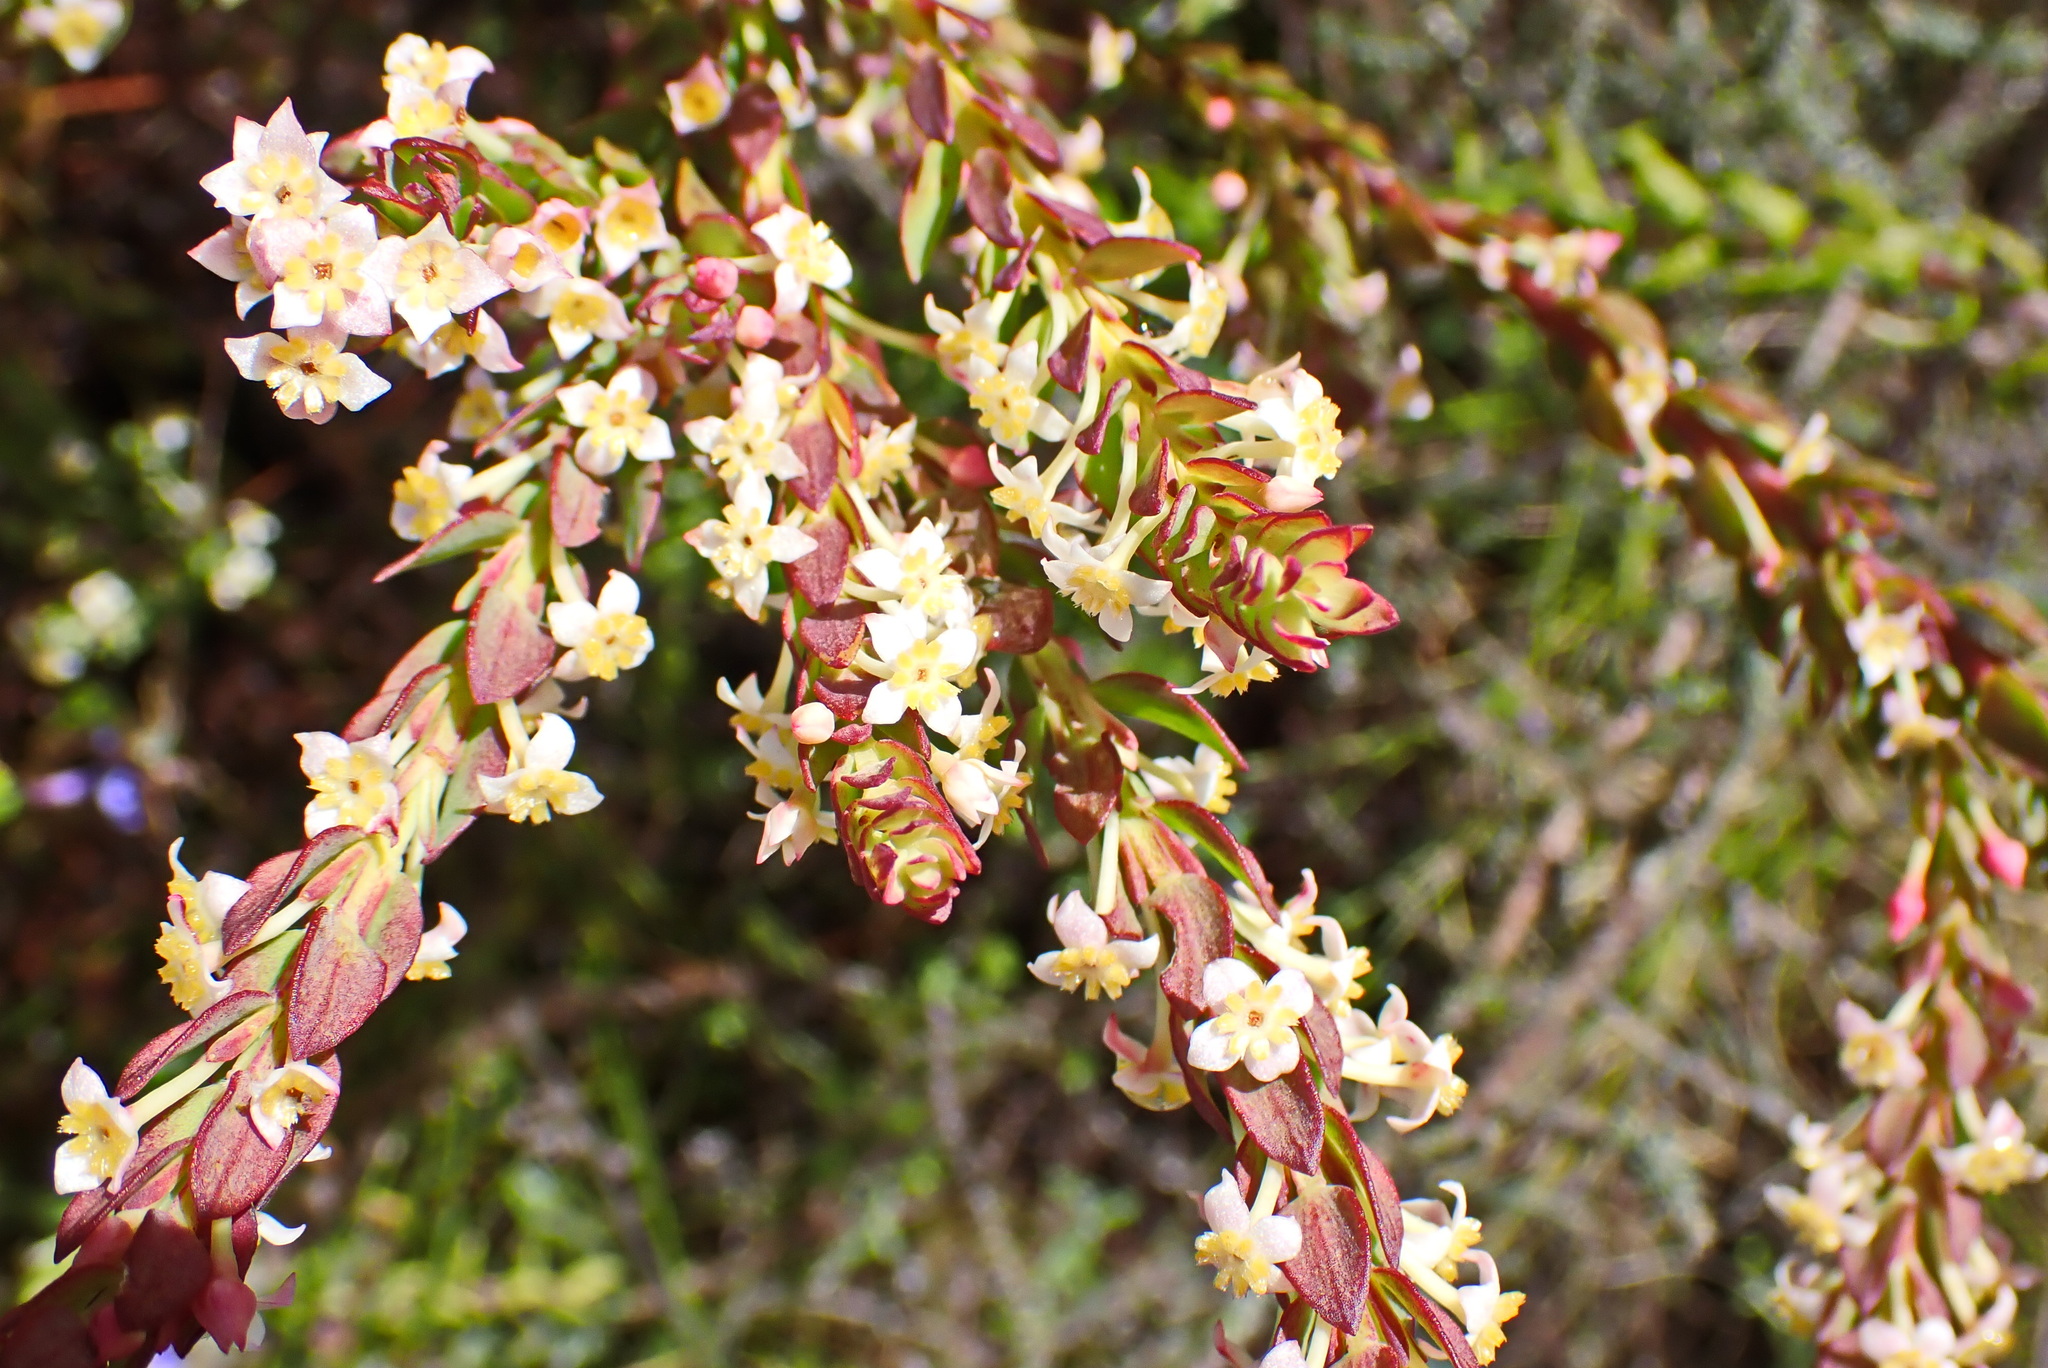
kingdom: Plantae
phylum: Tracheophyta
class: Magnoliopsida
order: Malvales
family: Thymelaeaceae
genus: Struthiola
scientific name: Struthiola tomentosa
